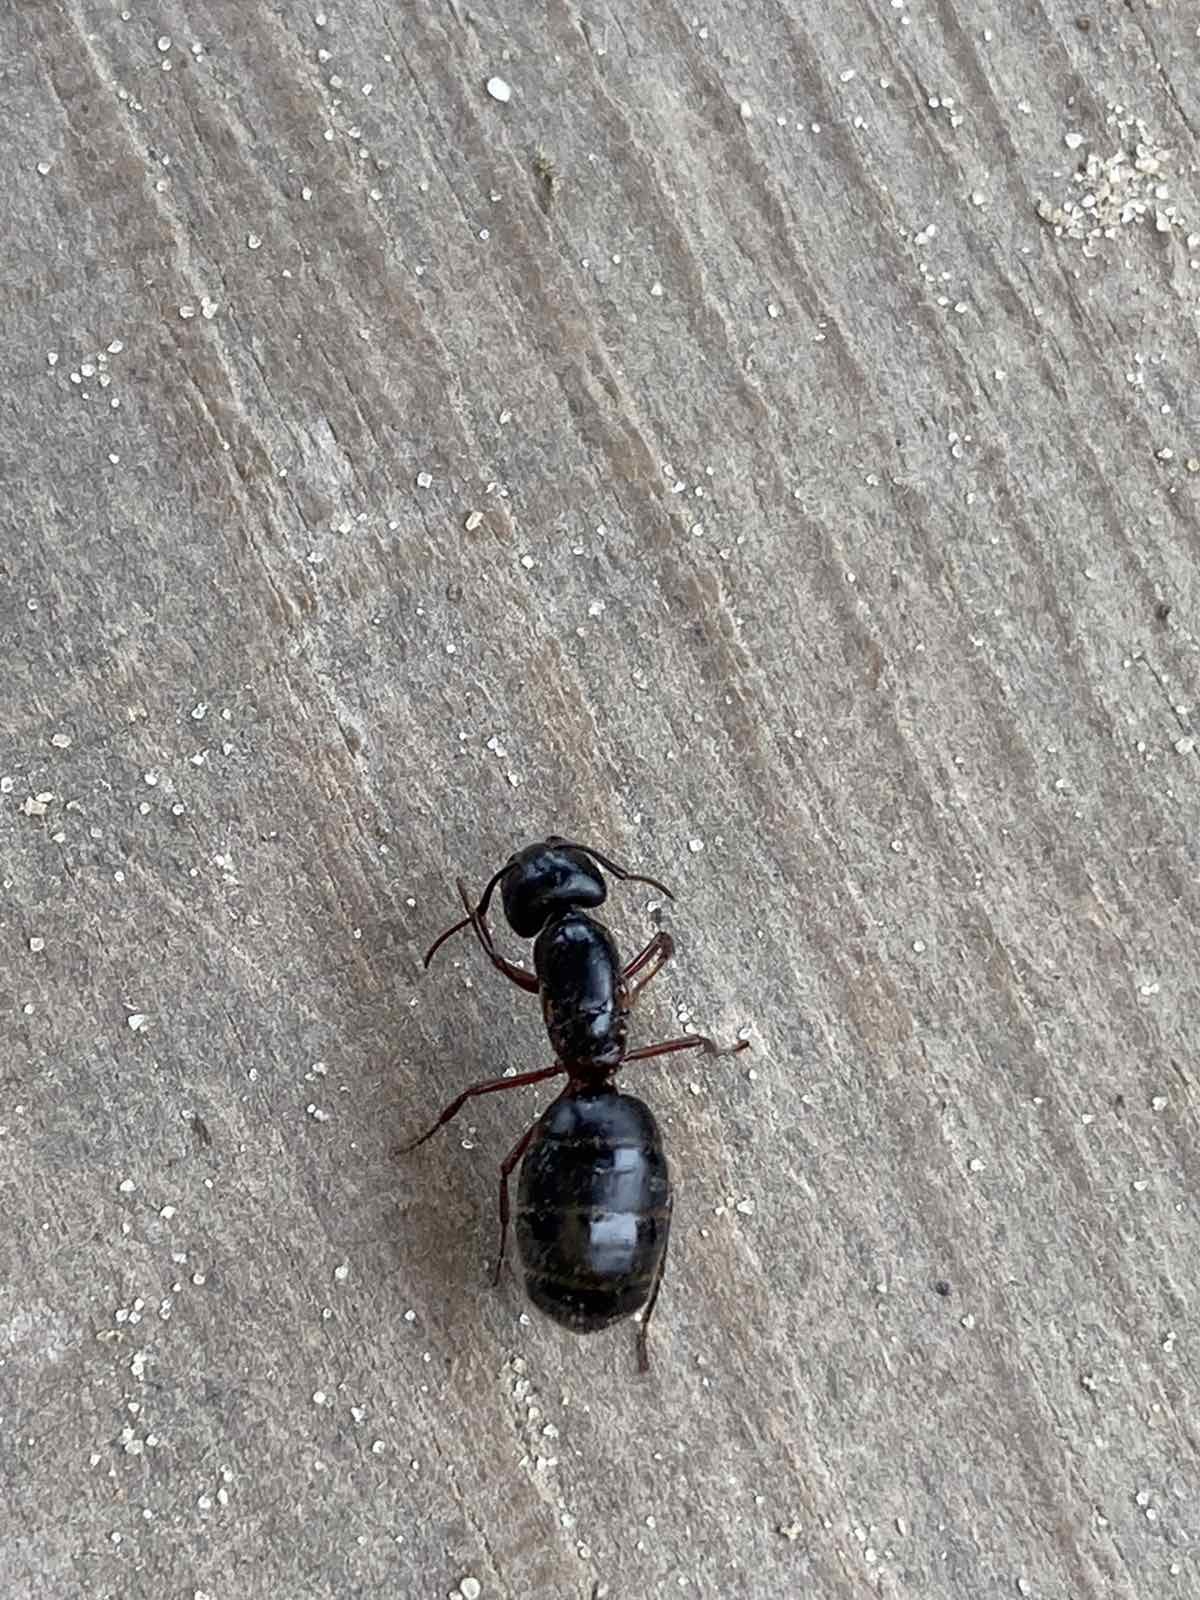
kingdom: Animalia
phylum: Arthropoda
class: Insecta
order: Hymenoptera
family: Formicidae
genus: Camponotus
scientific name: Camponotus herculeanus
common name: Hercules ant
